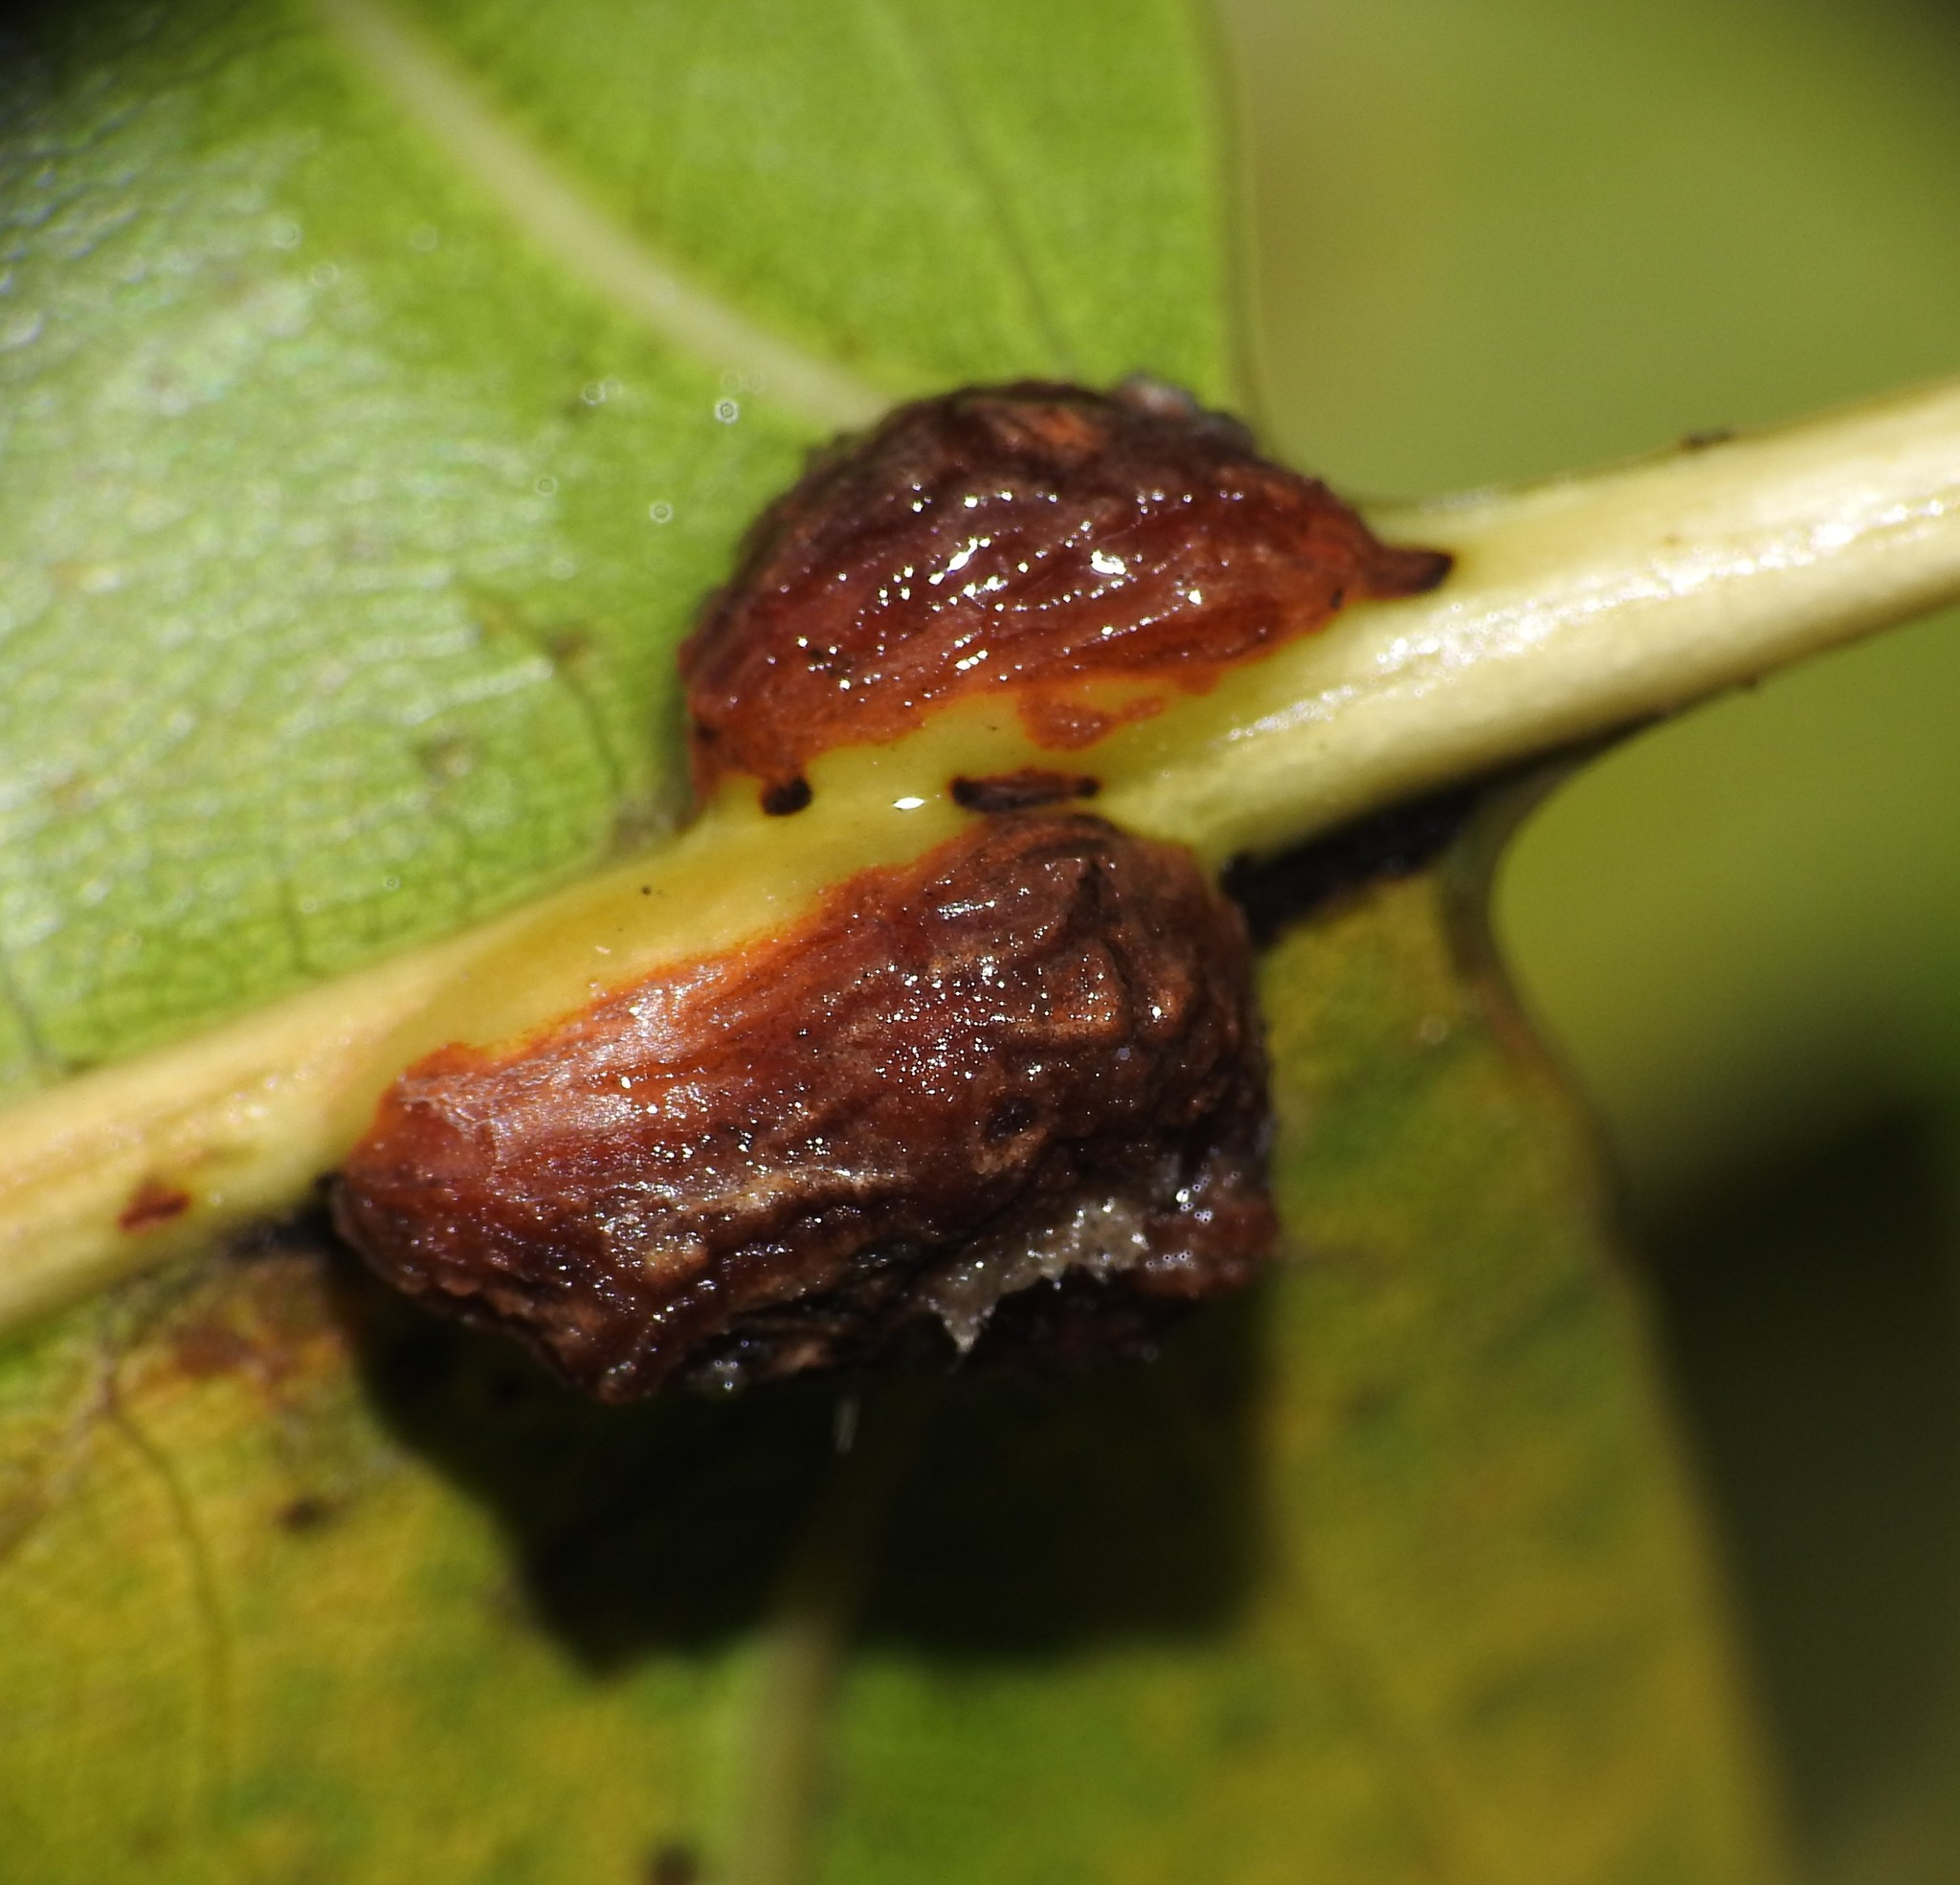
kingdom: Animalia
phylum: Arthropoda
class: Insecta
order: Diptera
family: Cecidomyiidae
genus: Polystepha
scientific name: Polystepha podagrae
